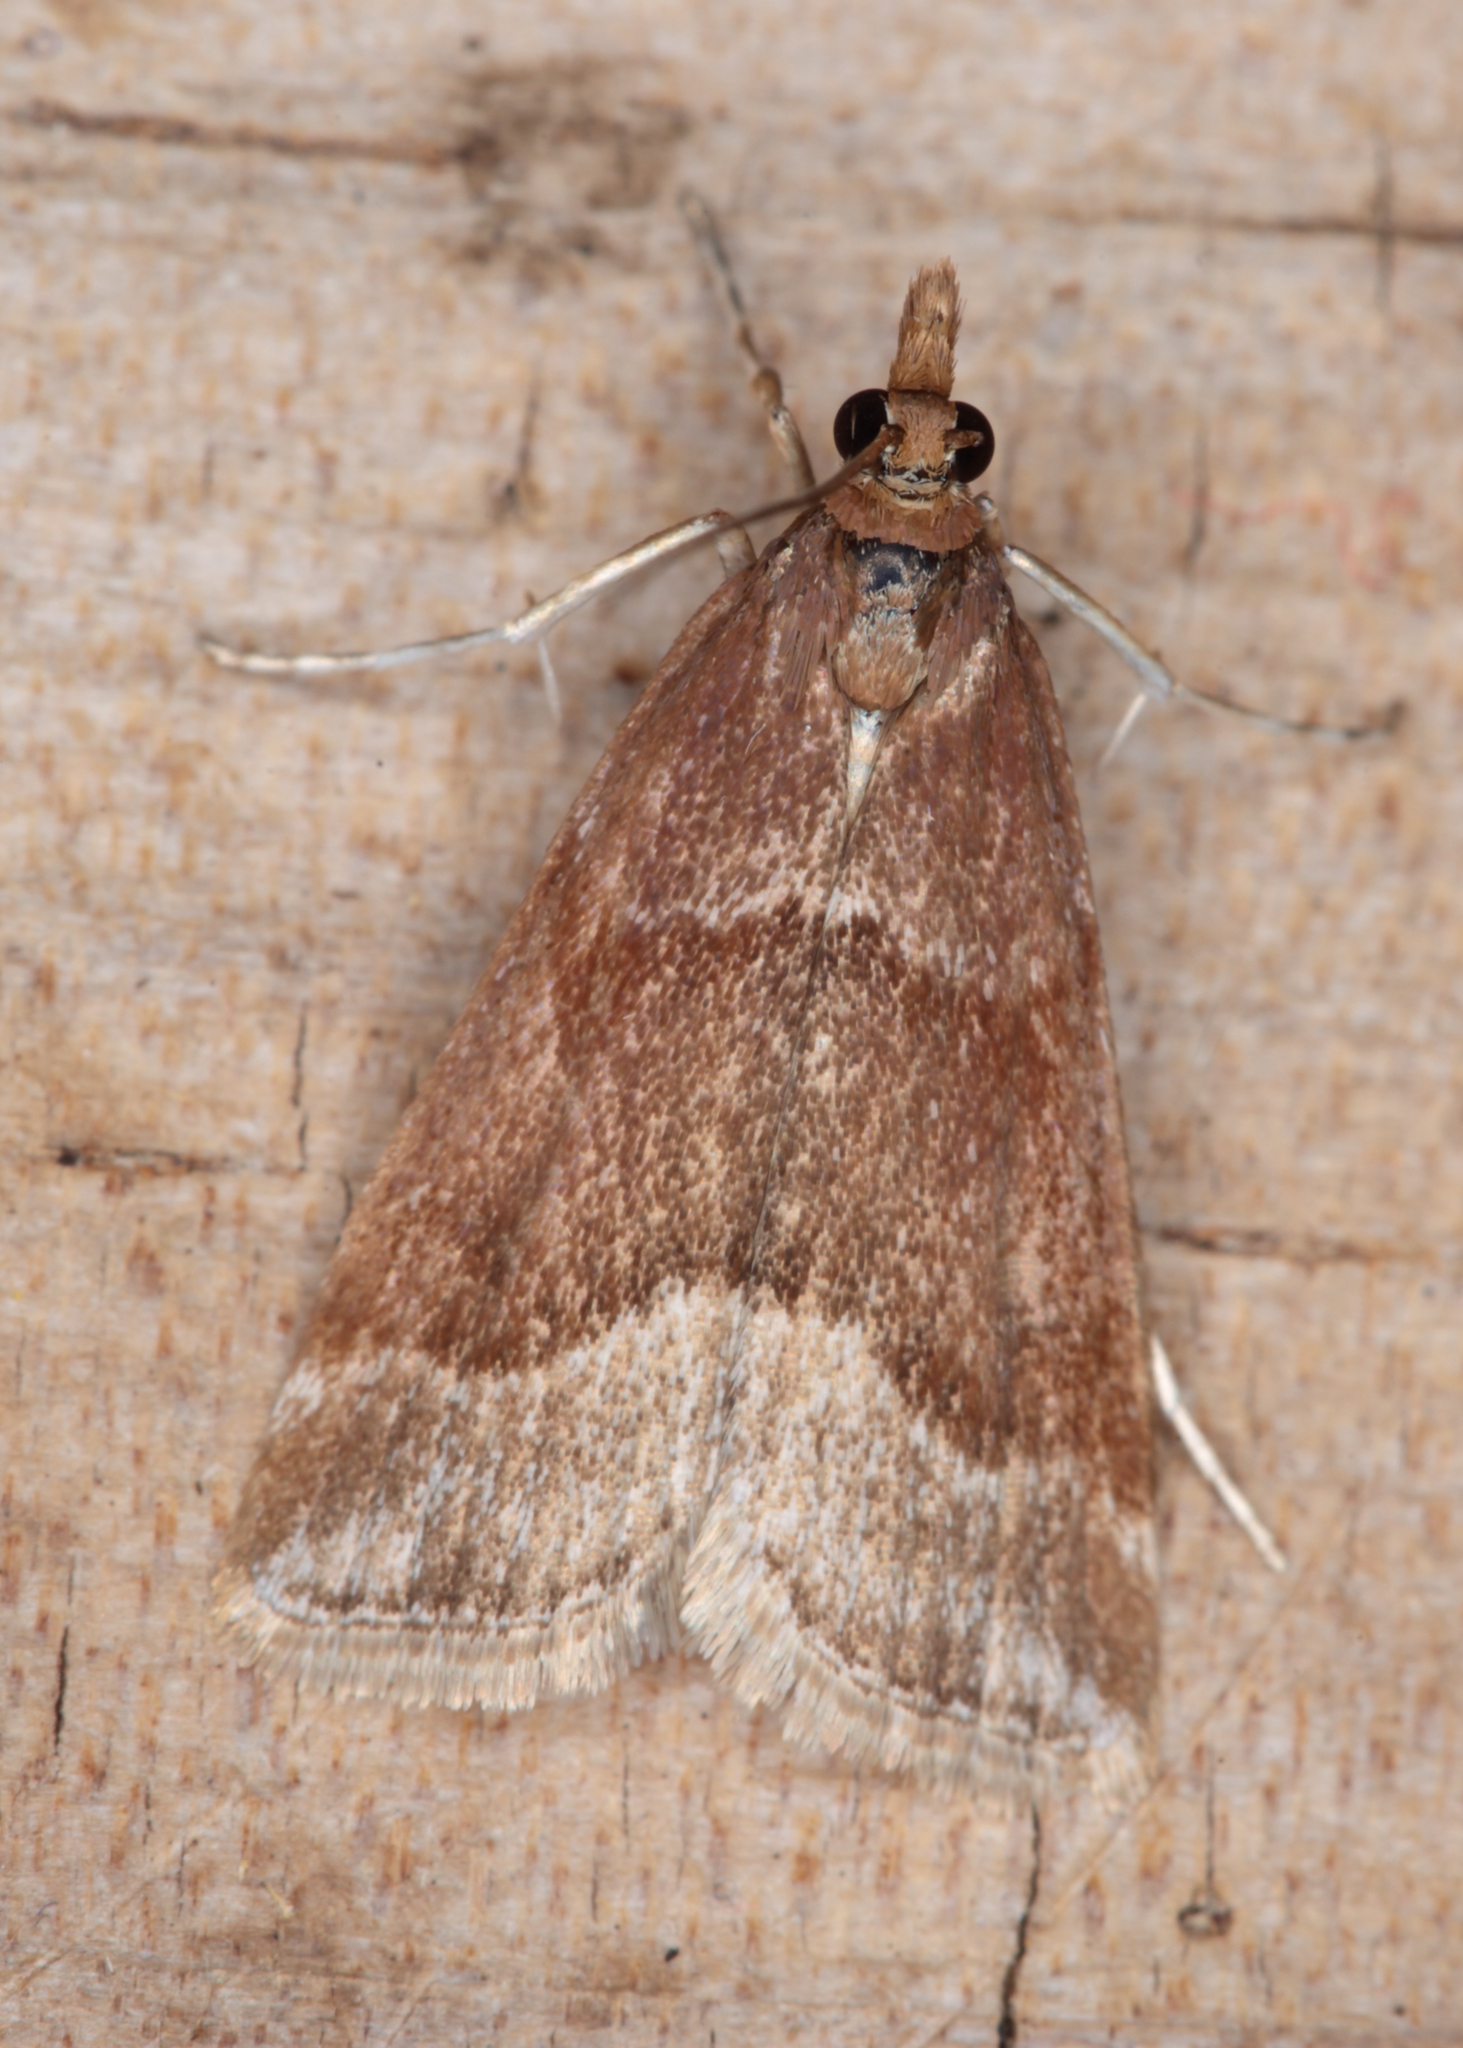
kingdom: Animalia
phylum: Arthropoda
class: Insecta
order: Lepidoptera
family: Crambidae
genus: Eudonia
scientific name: Eudonia feredayi
